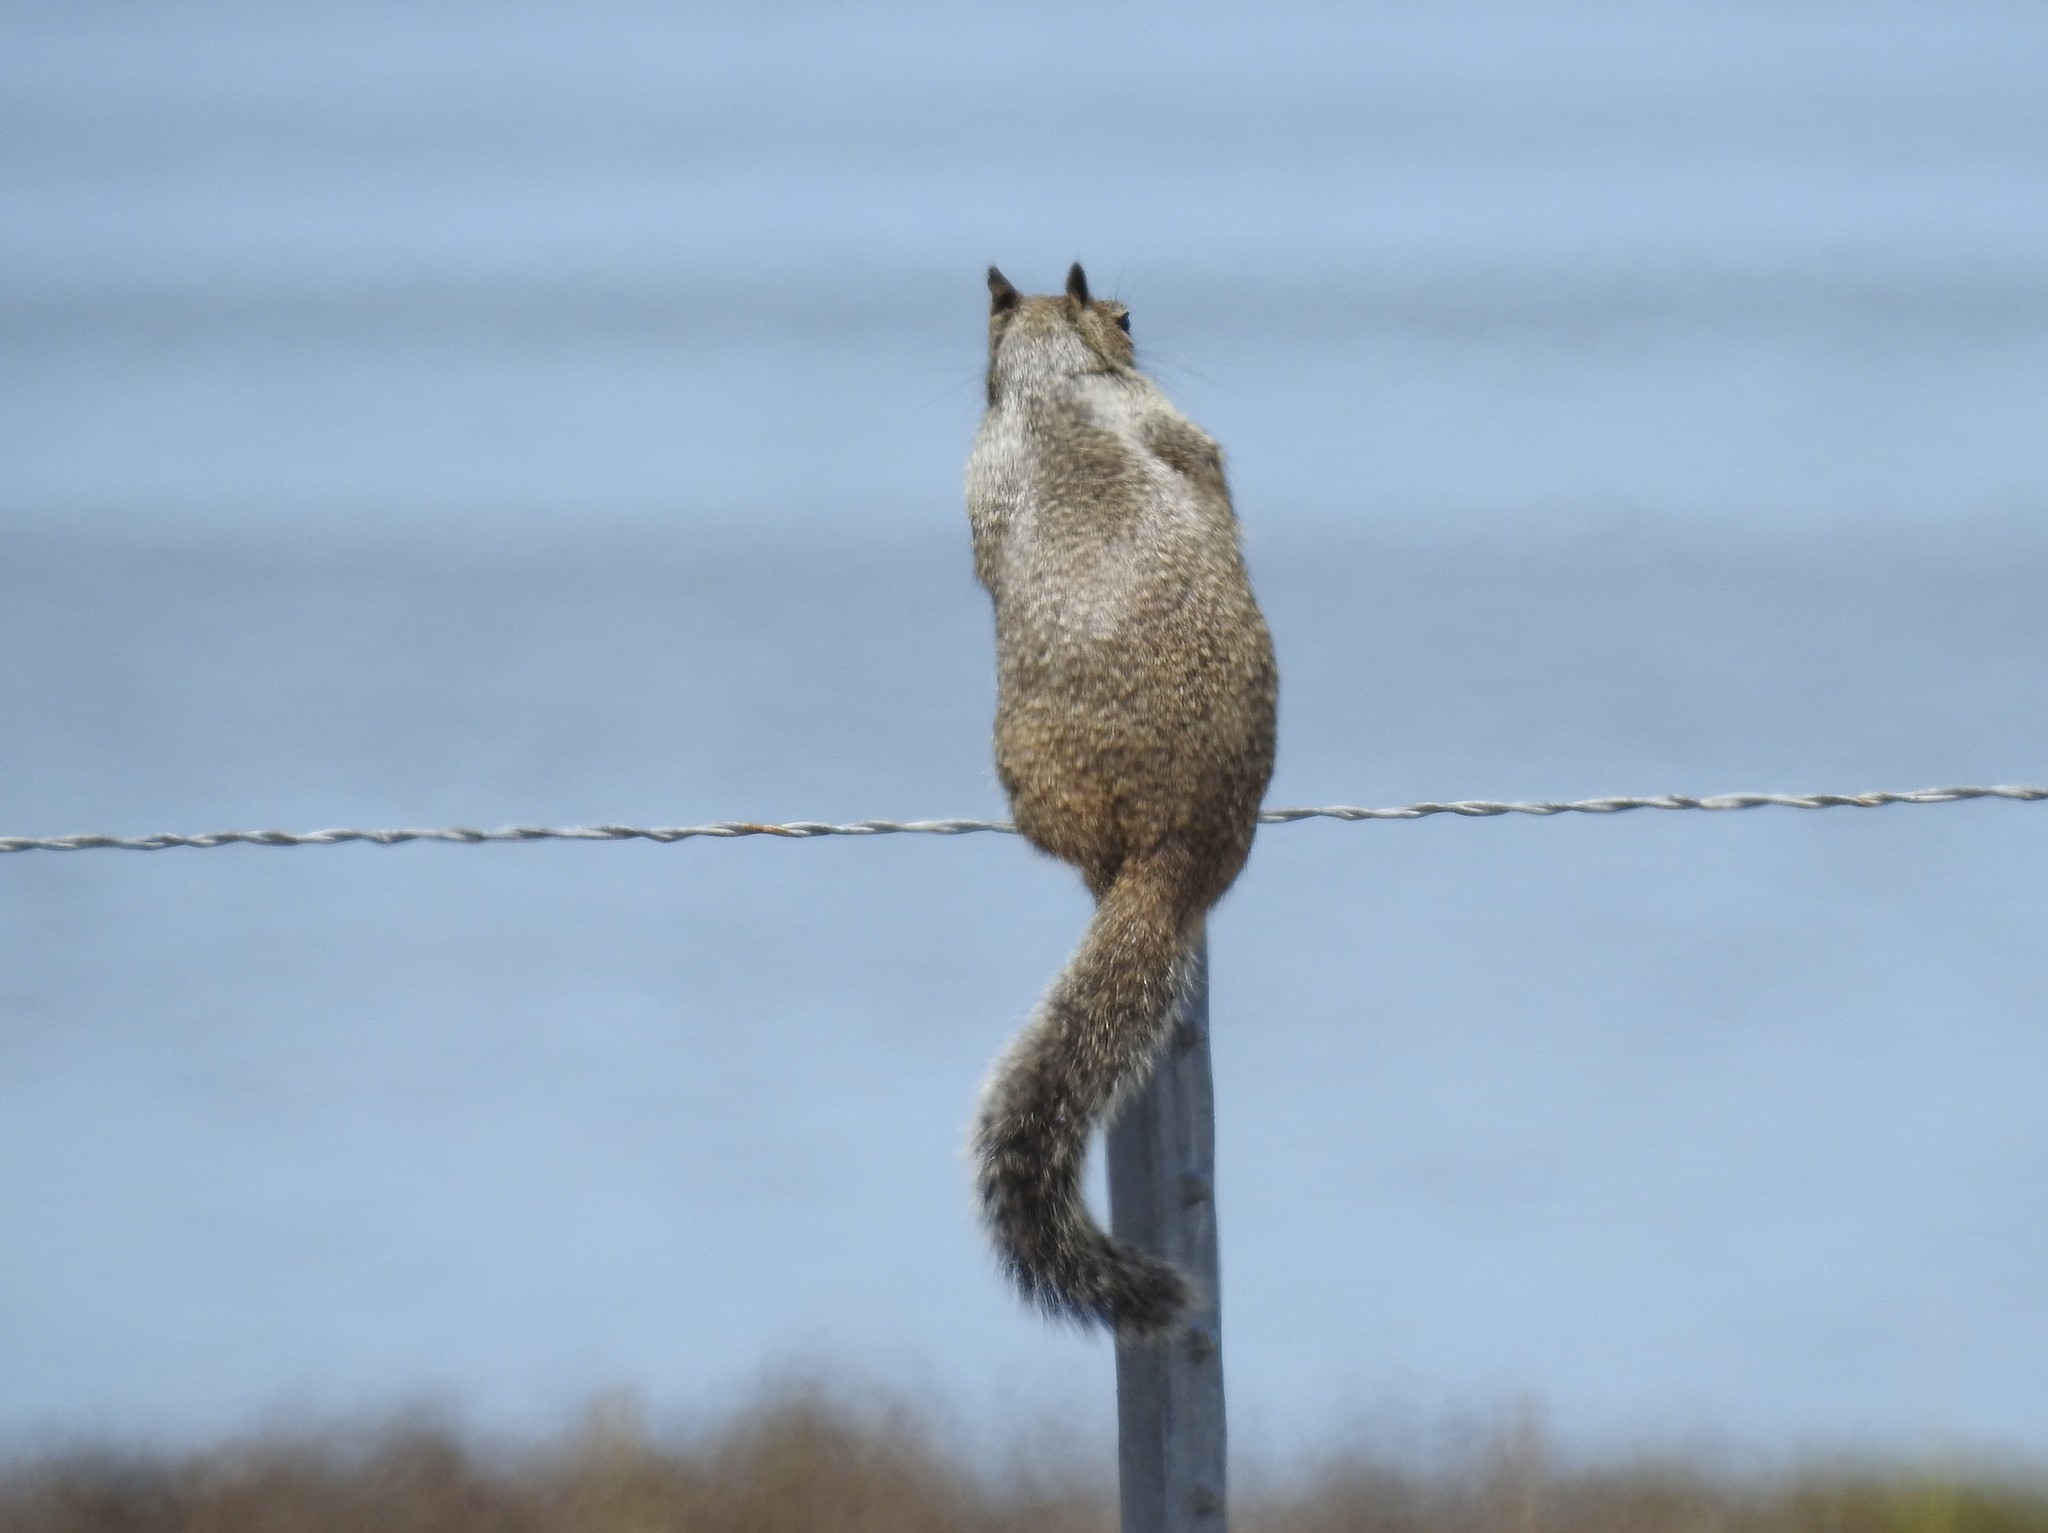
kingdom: Animalia
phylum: Chordata
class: Mammalia
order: Rodentia
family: Sciuridae
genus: Otospermophilus
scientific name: Otospermophilus beecheyi
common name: California ground squirrel
